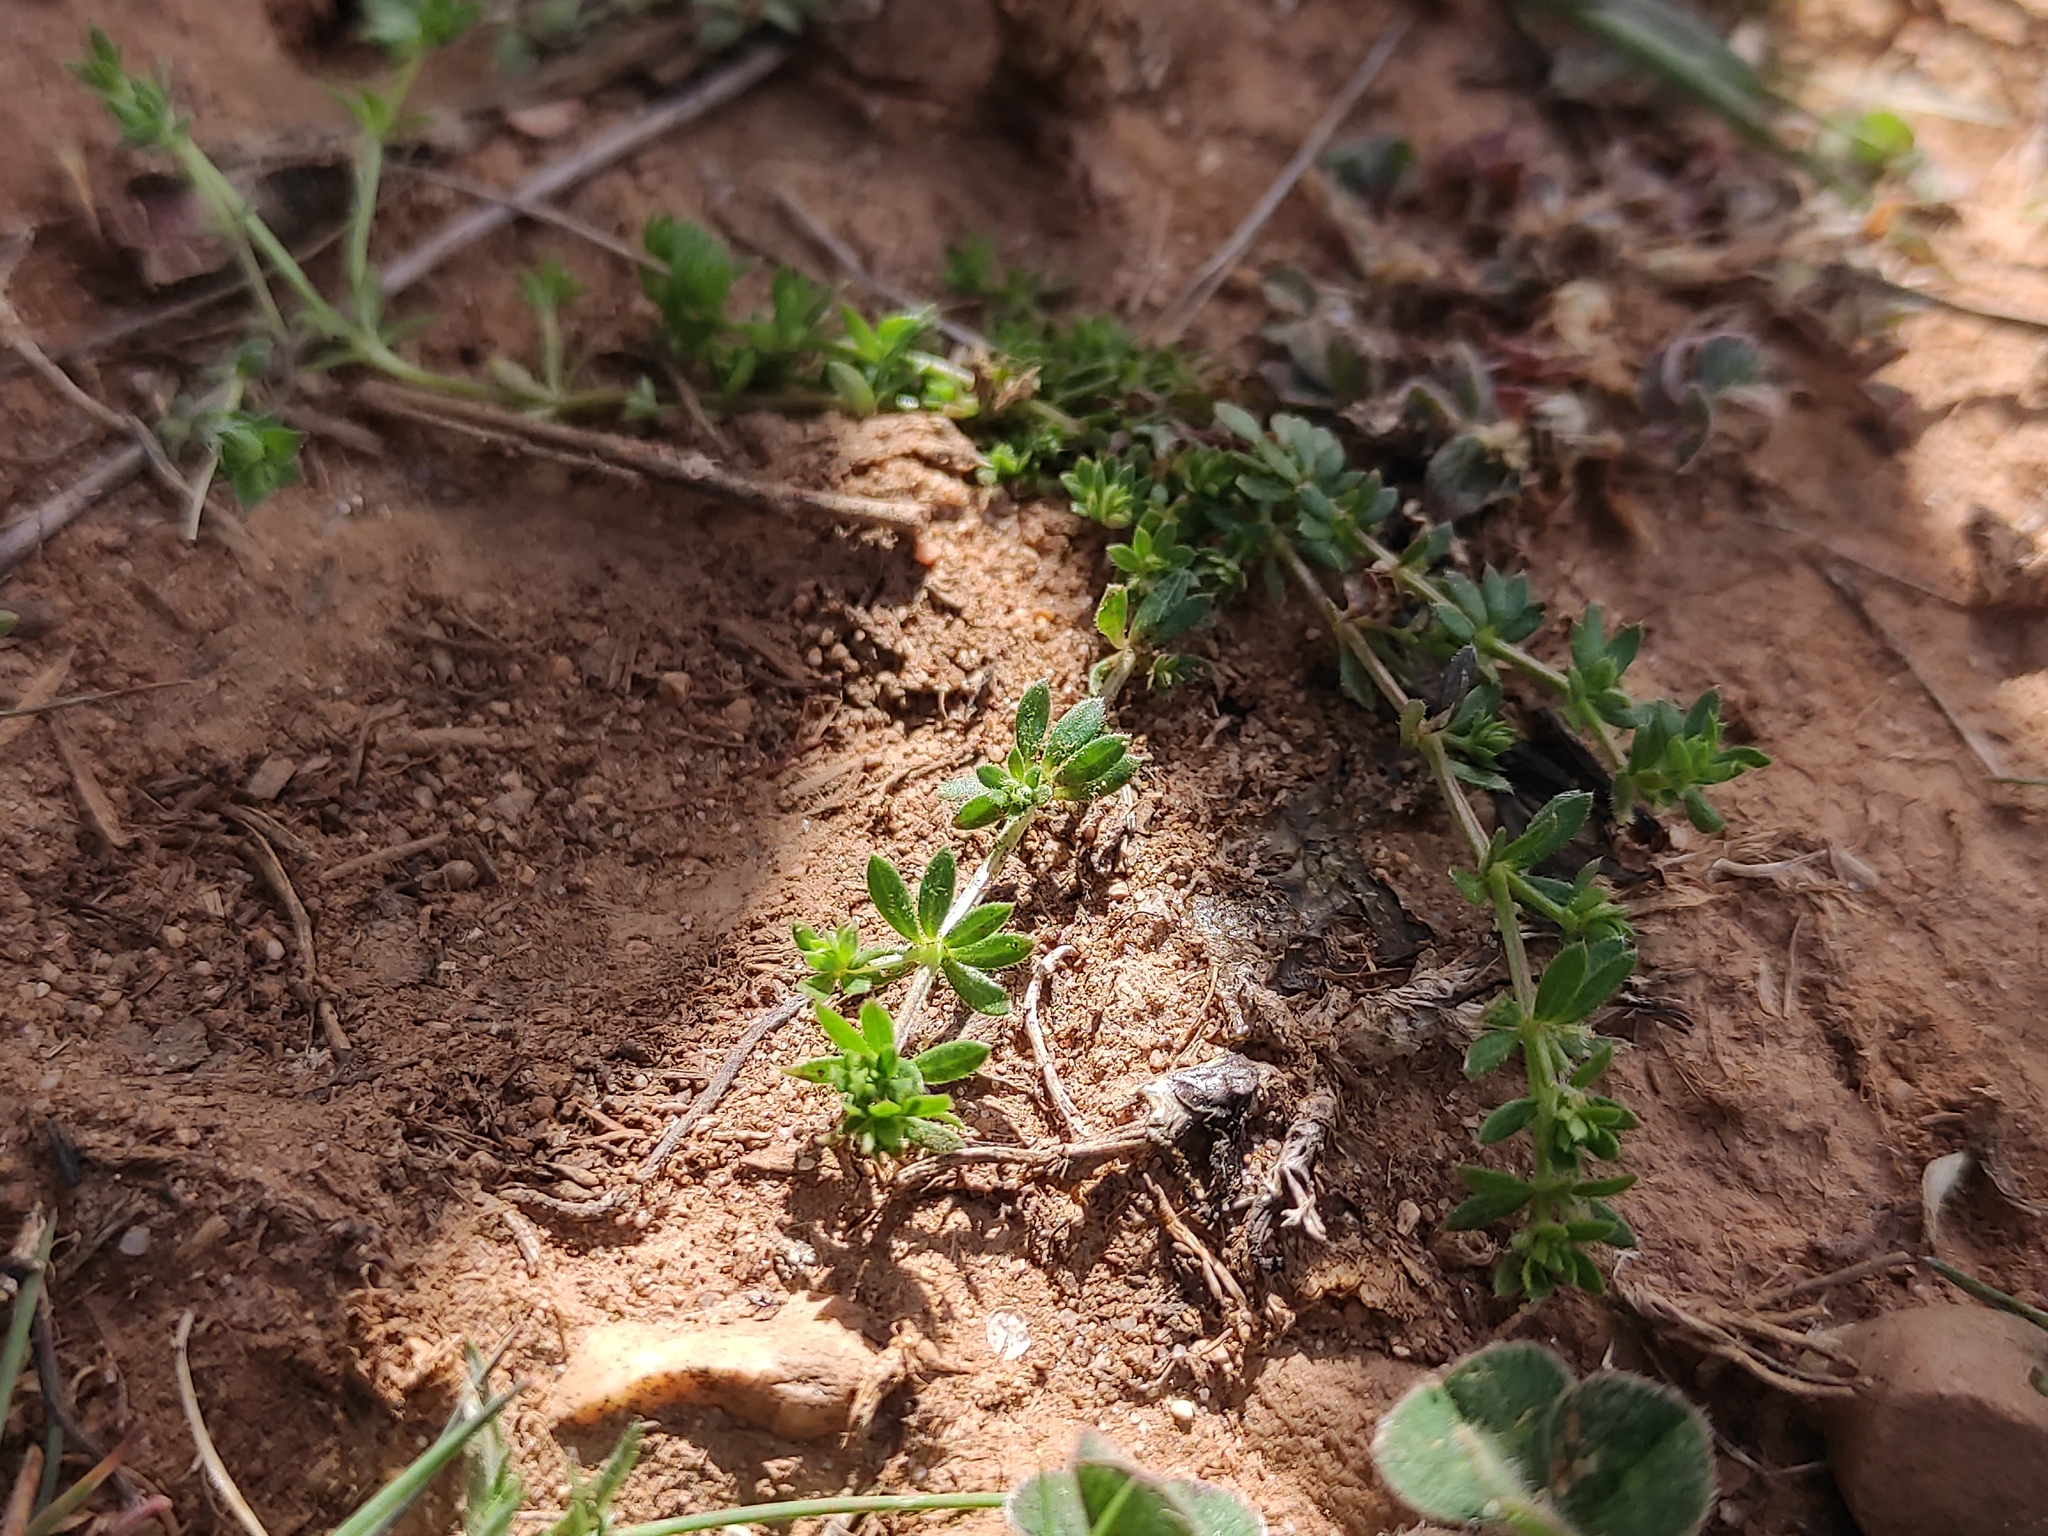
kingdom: Plantae
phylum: Tracheophyta
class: Magnoliopsida
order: Gentianales
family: Rubiaceae
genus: Sherardia
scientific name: Sherardia arvensis
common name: Field madder
